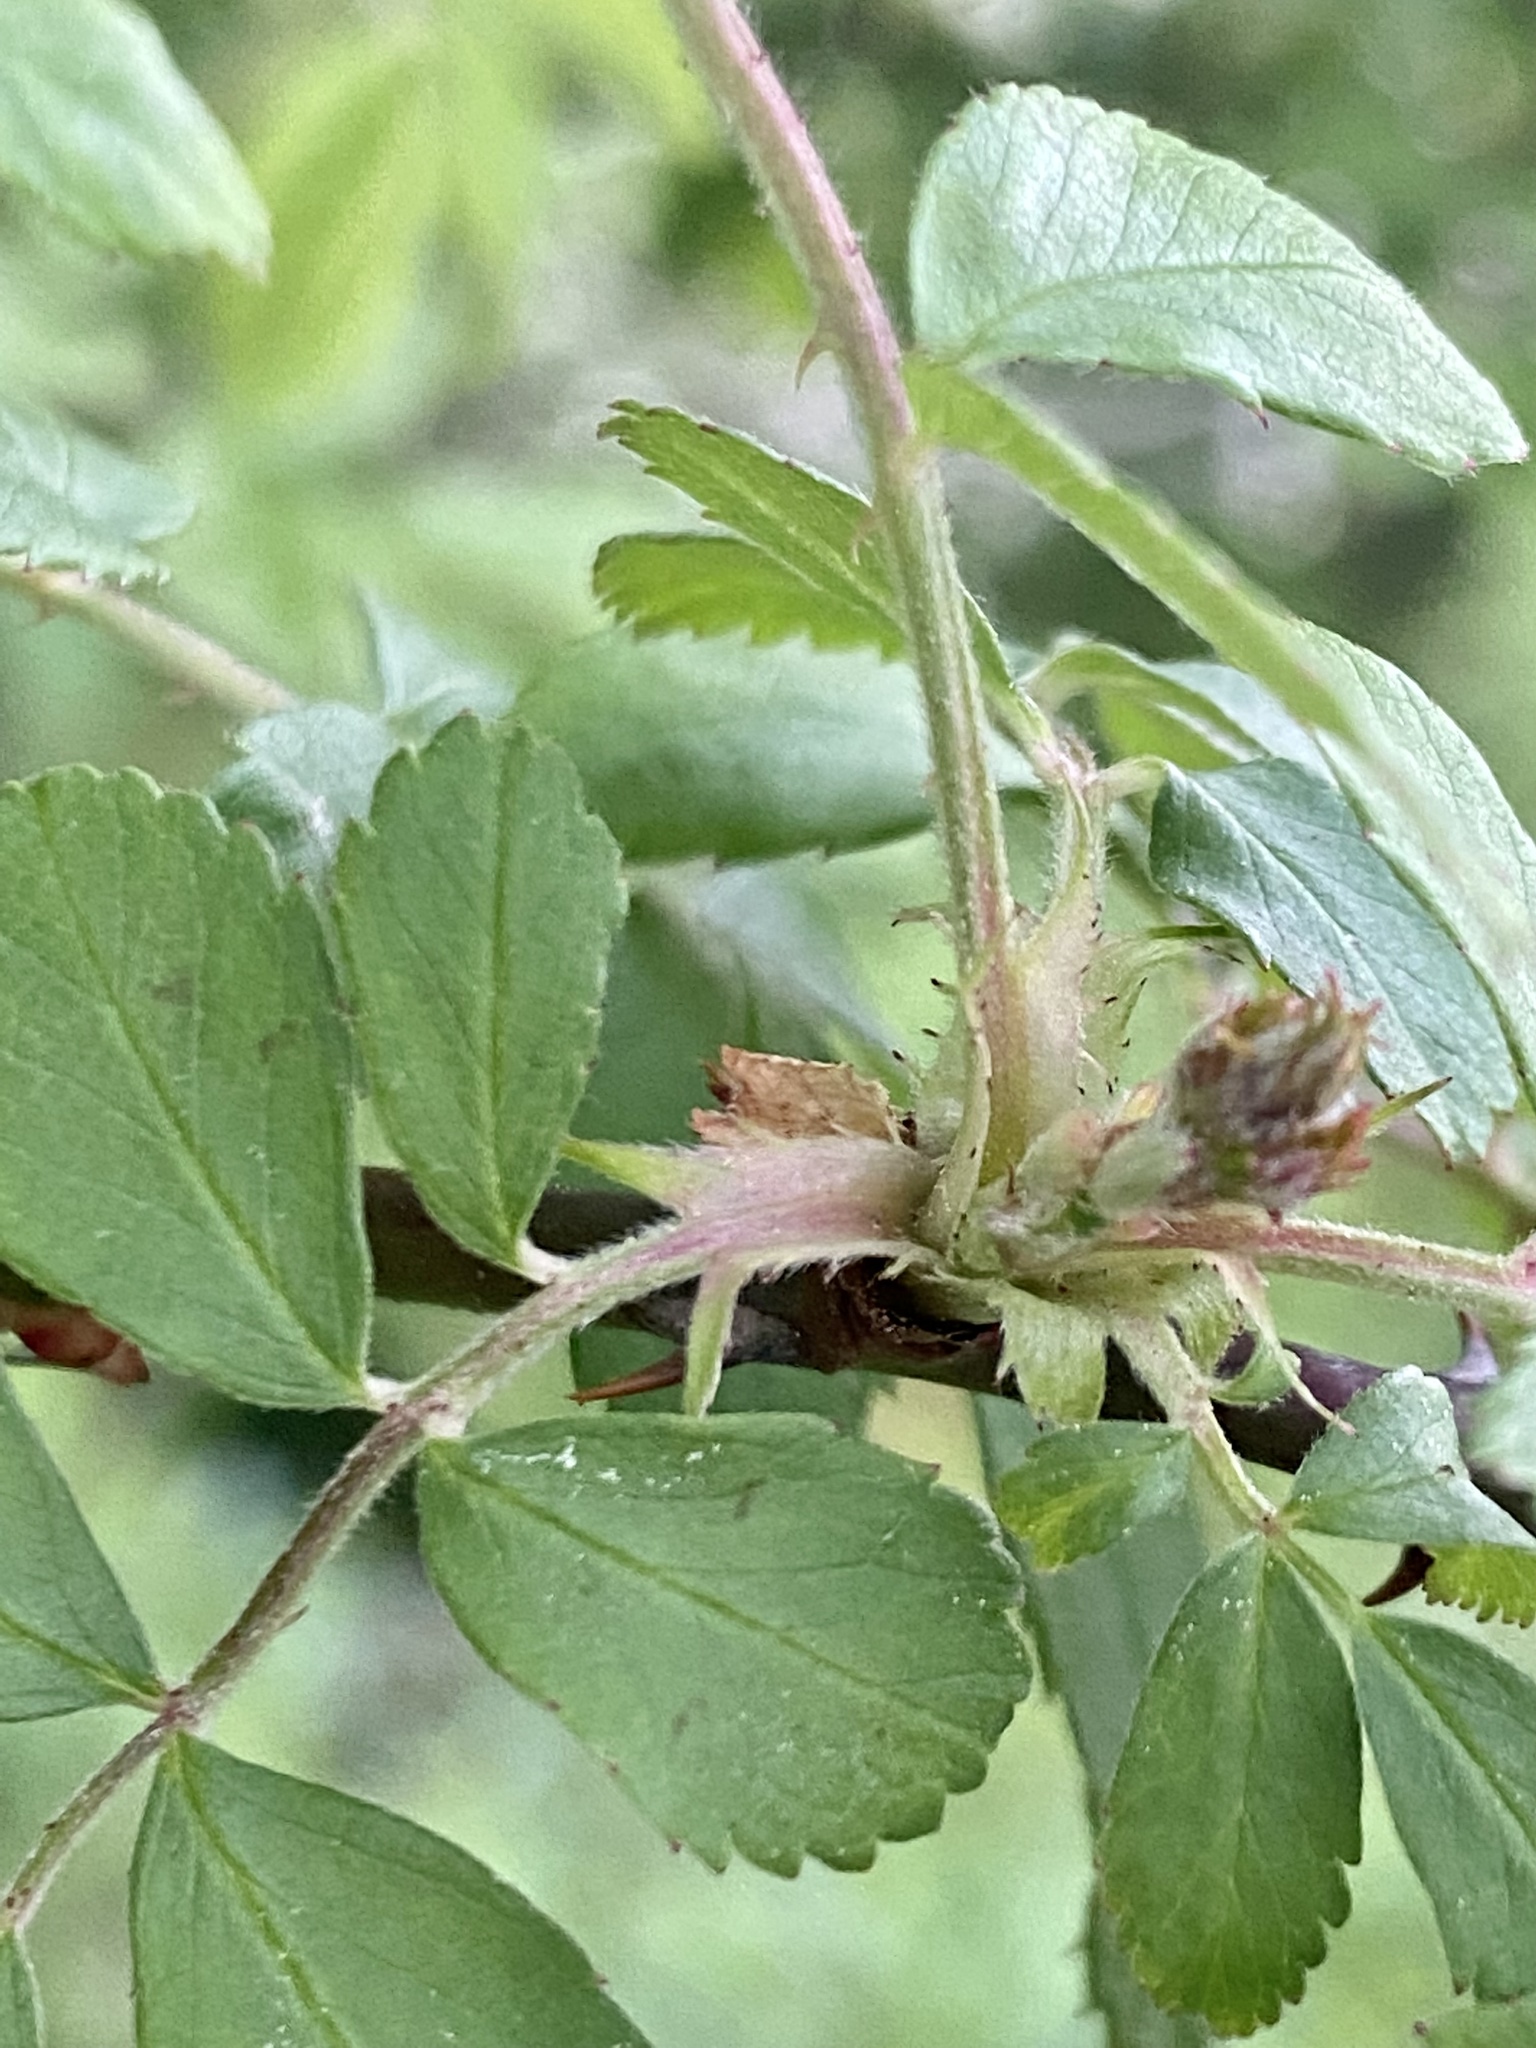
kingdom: Plantae
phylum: Tracheophyta
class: Magnoliopsida
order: Rosales
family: Rosaceae
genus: Rosa
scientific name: Rosa multiflora
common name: Multiflora rose
